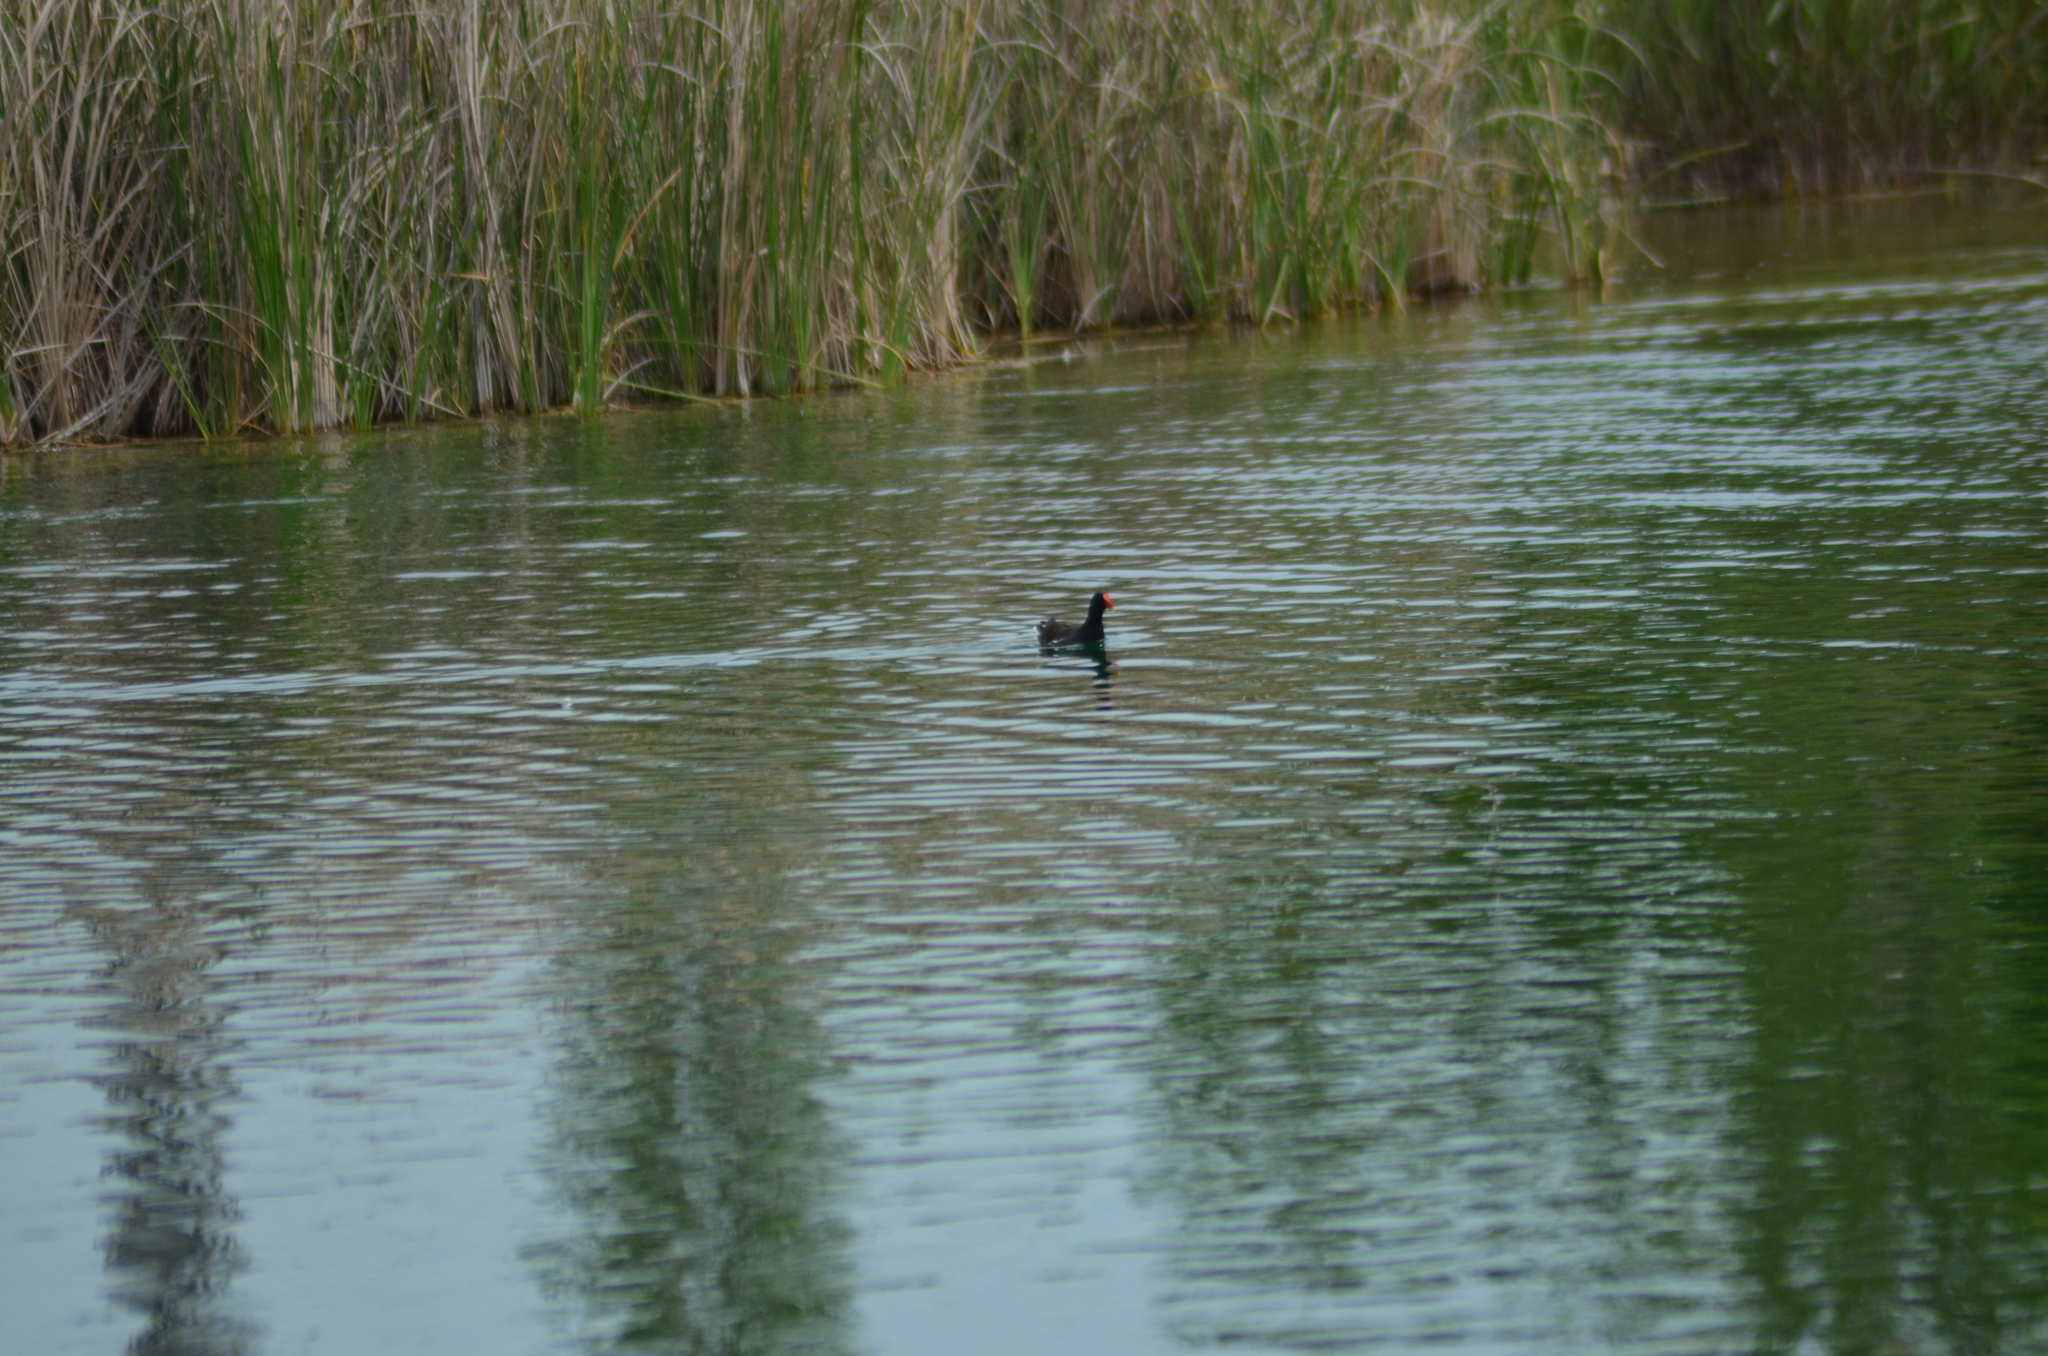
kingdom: Animalia
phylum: Chordata
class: Aves
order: Gruiformes
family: Rallidae
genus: Gallinula
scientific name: Gallinula chloropus
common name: Common moorhen
